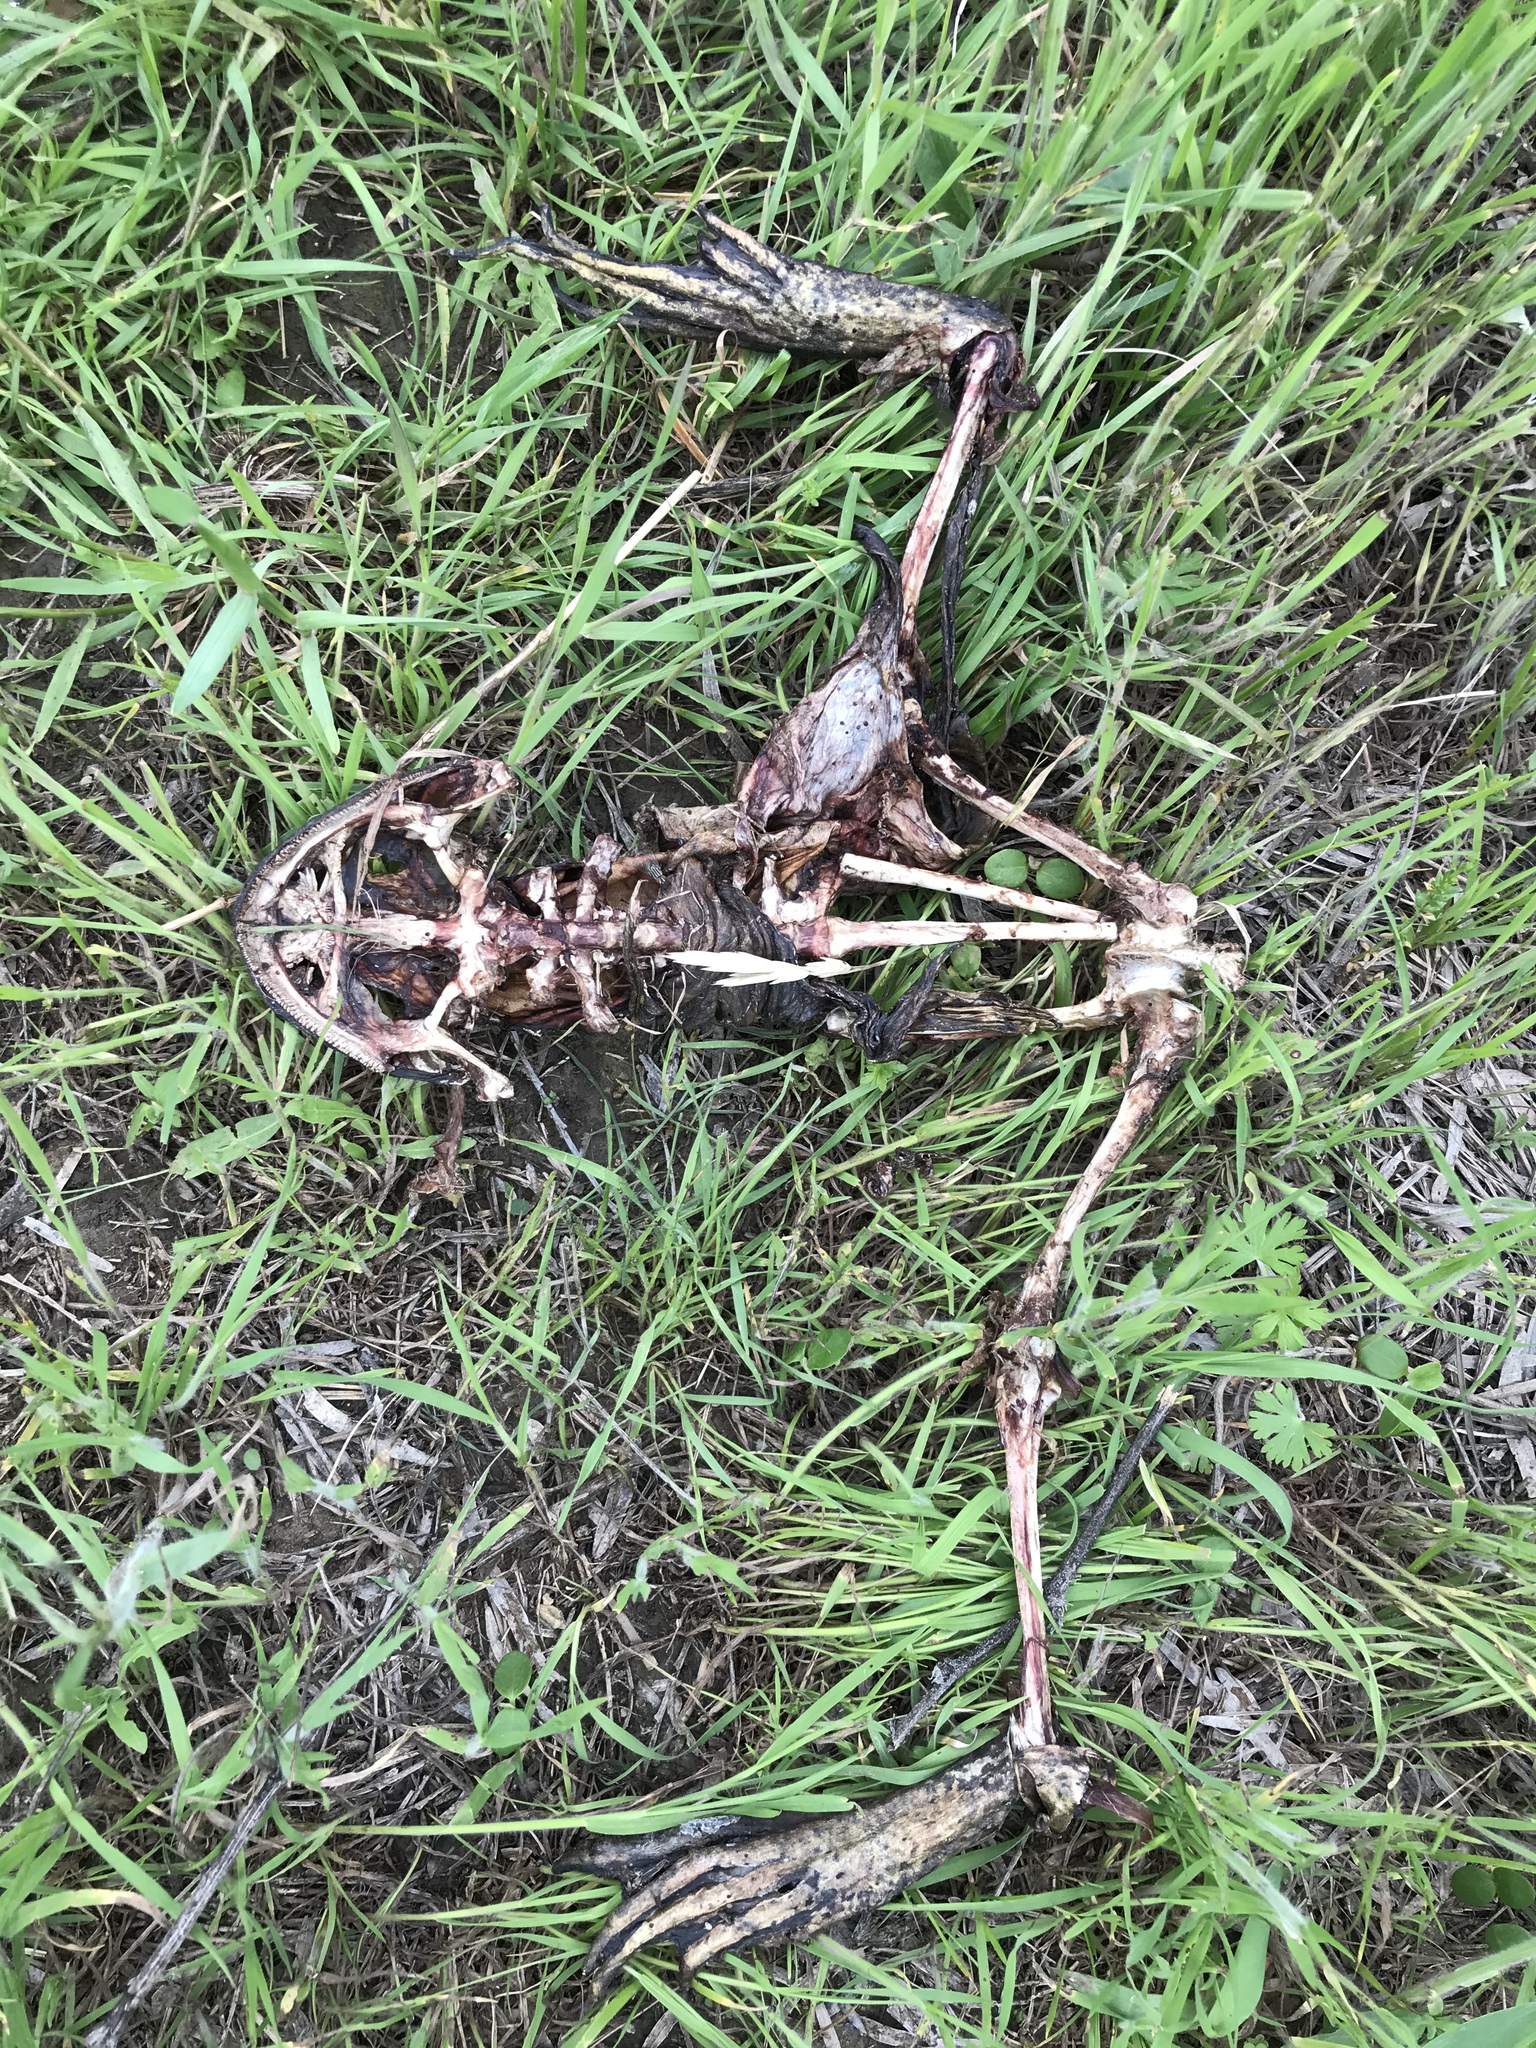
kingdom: Animalia
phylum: Chordata
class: Amphibia
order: Anura
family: Ranidae
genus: Lithobates
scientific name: Lithobates catesbeianus
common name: American bullfrog
